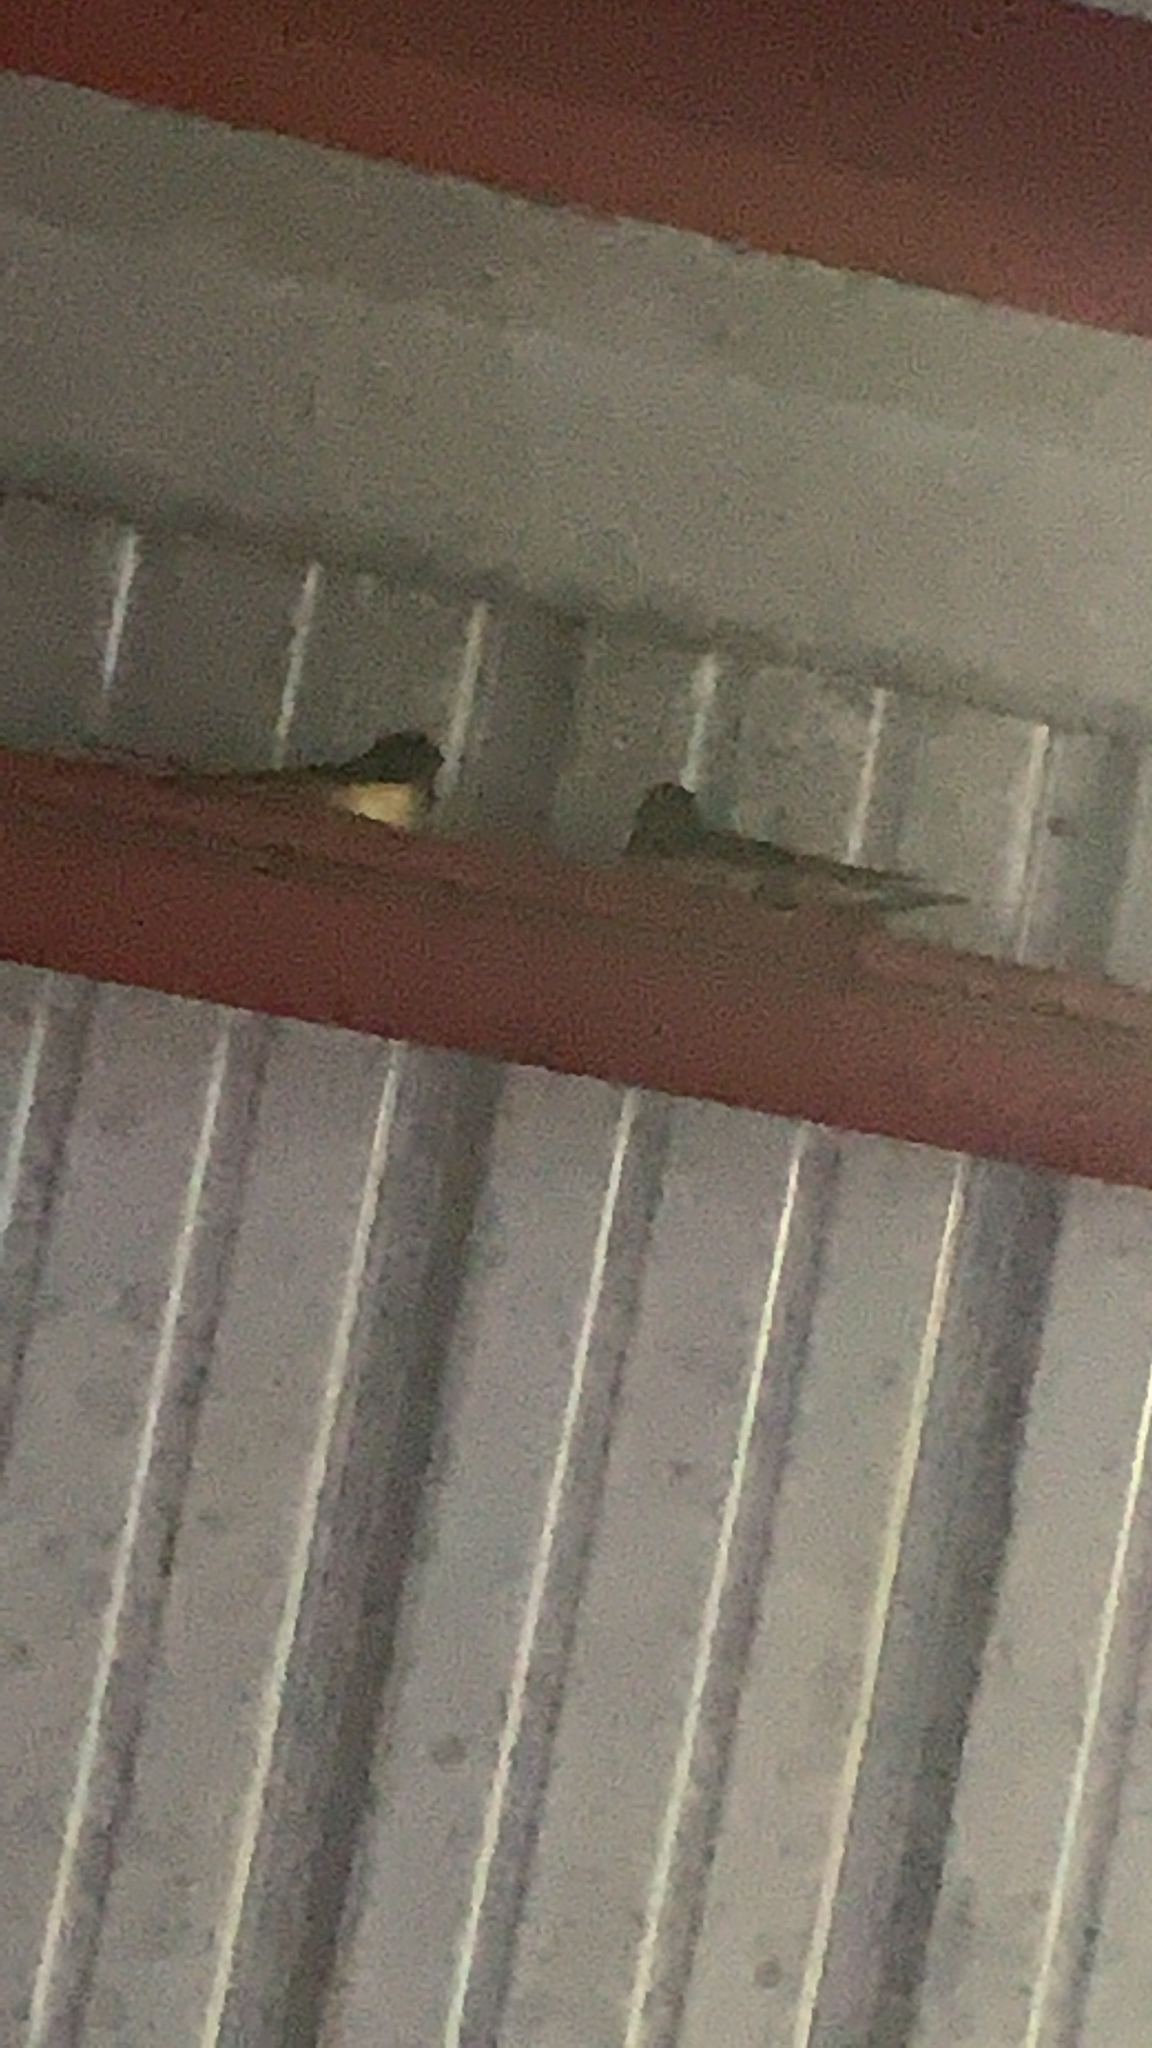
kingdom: Animalia
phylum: Chordata
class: Aves
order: Passeriformes
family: Hirundinidae
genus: Hirundo
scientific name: Hirundo rustica
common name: Barn swallow
